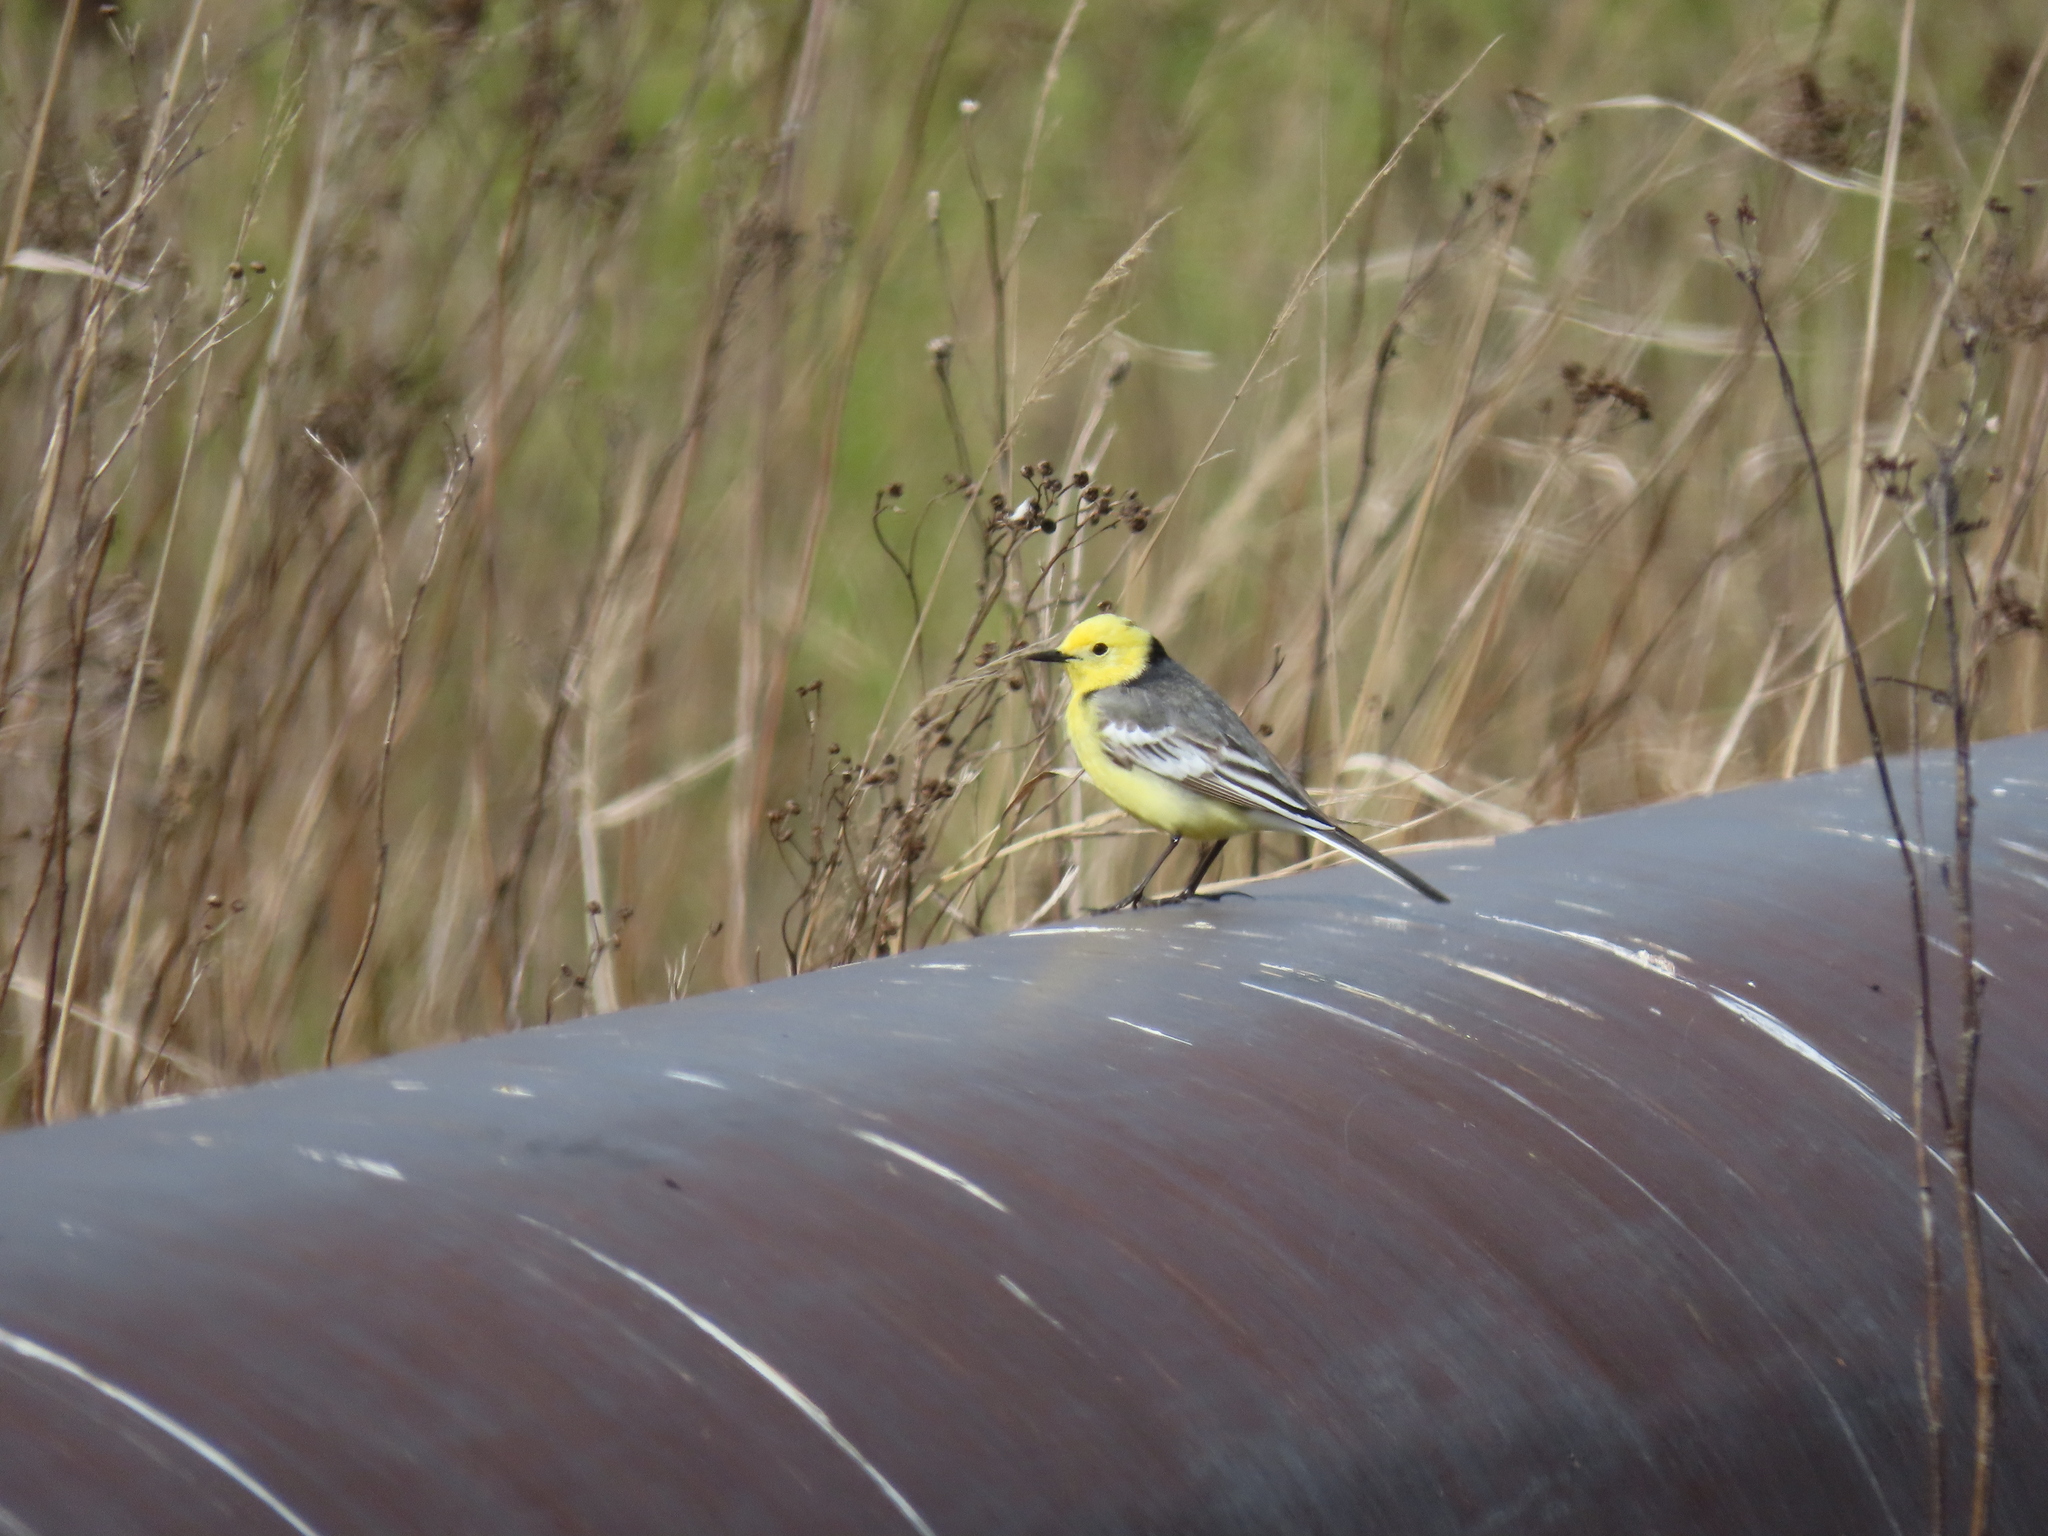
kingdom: Animalia
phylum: Chordata
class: Aves
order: Passeriformes
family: Motacillidae
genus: Motacilla
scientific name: Motacilla citreola
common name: Citrine wagtail
